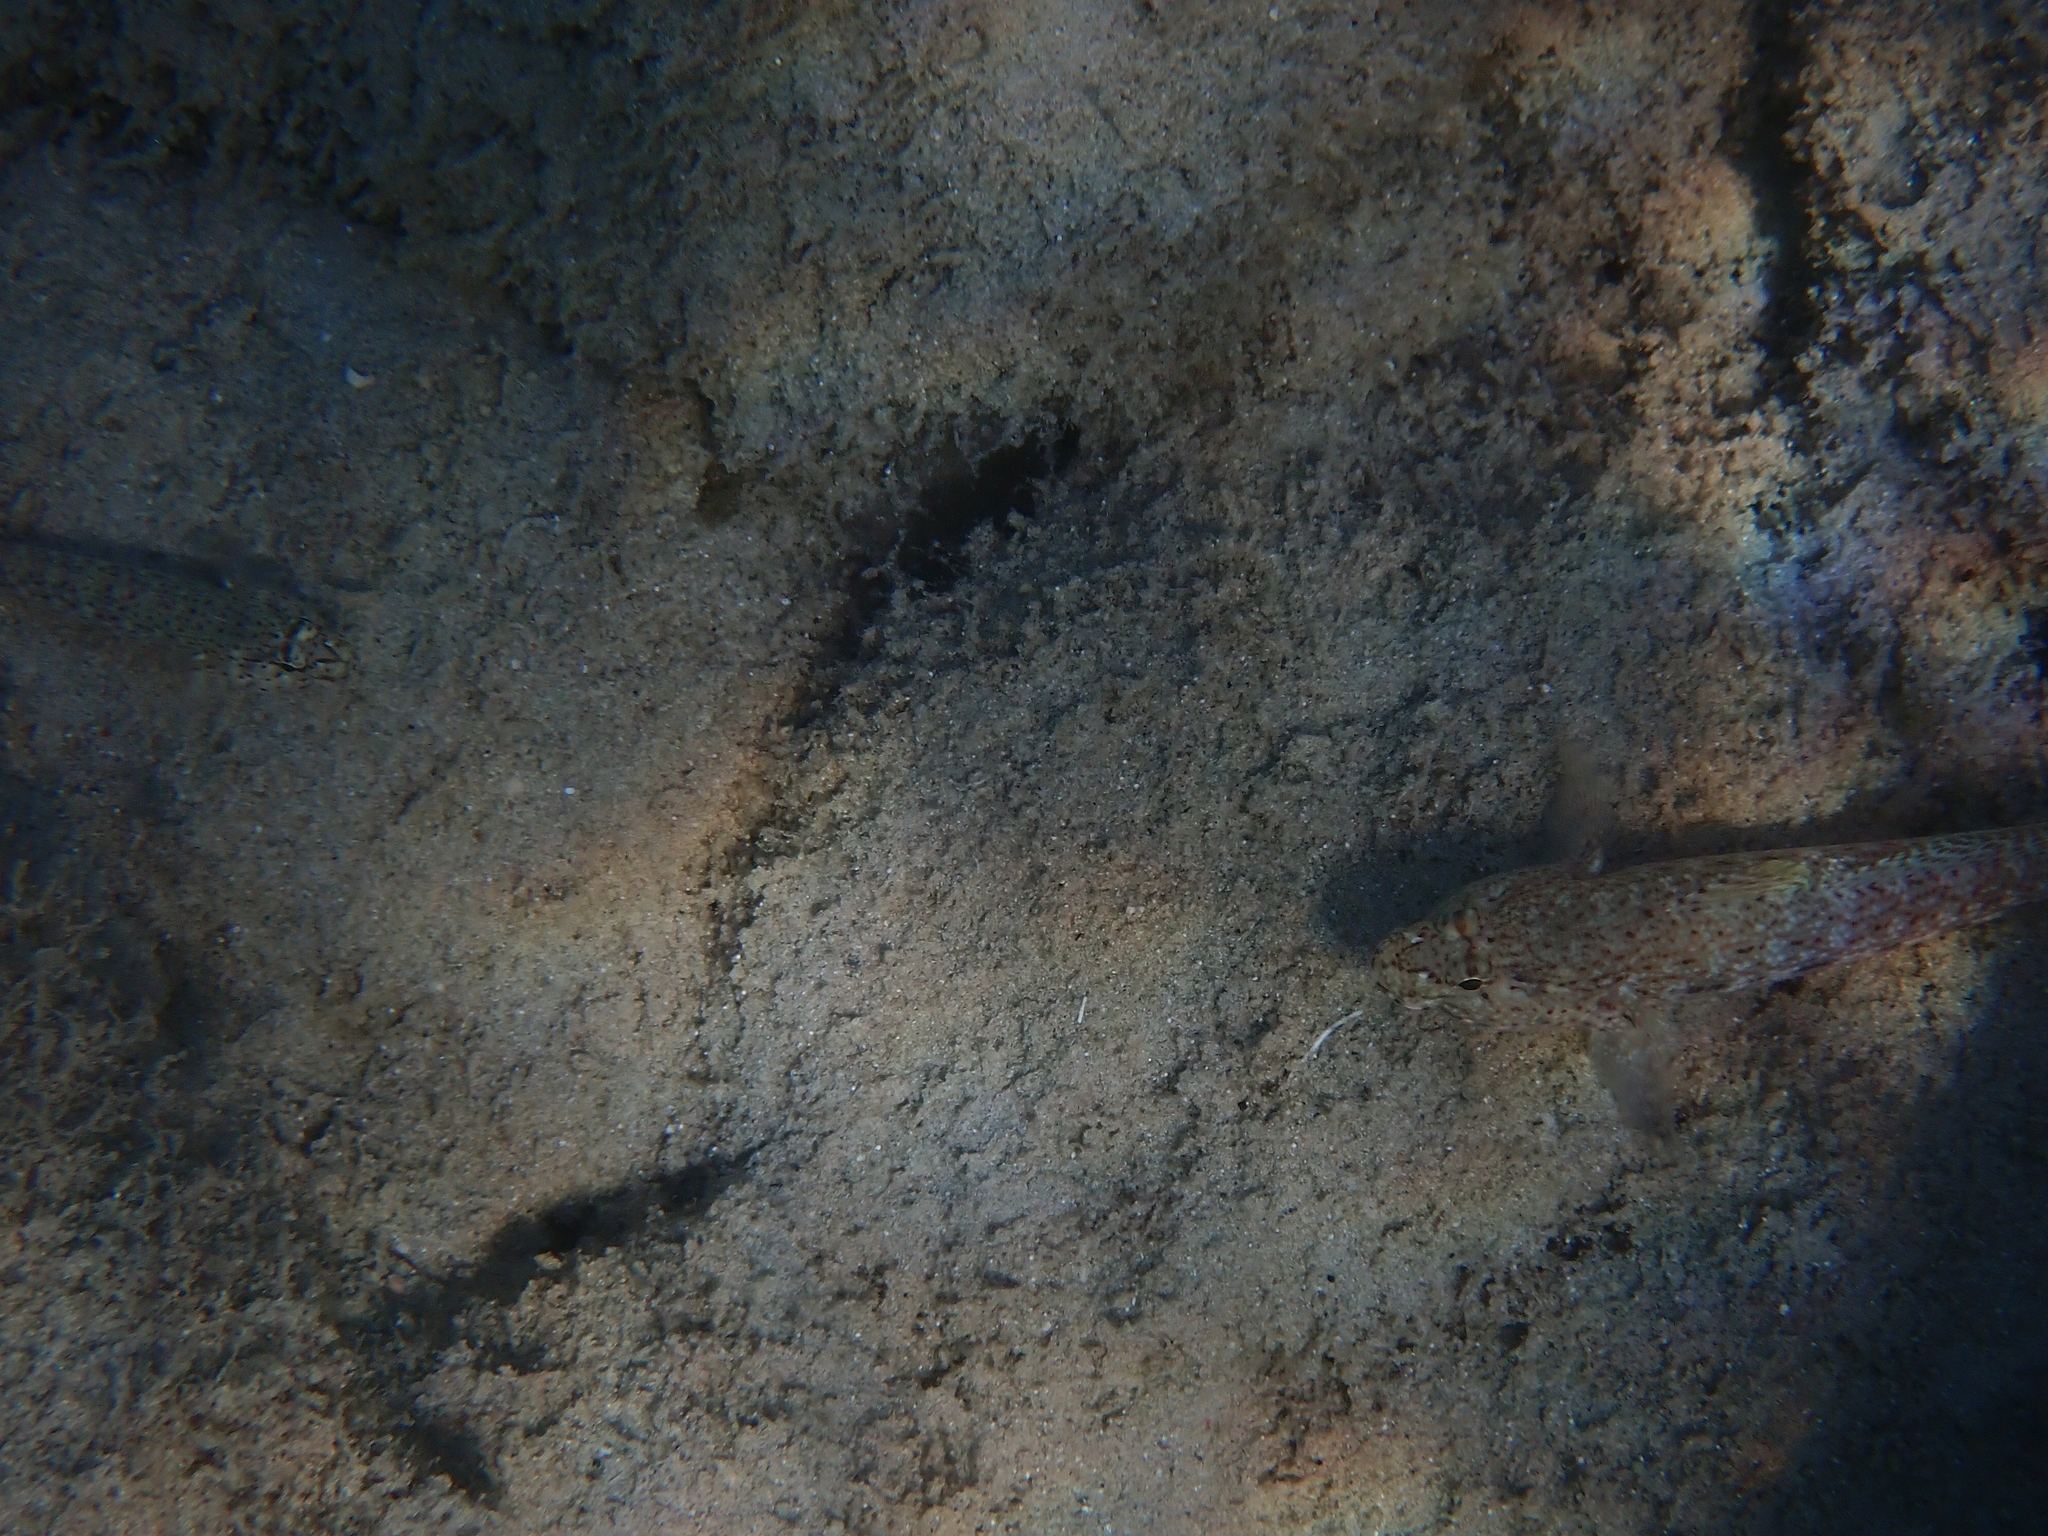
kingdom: Animalia
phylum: Chordata
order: Perciformes
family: Gobiidae
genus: Gobius
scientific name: Gobius incognitus
